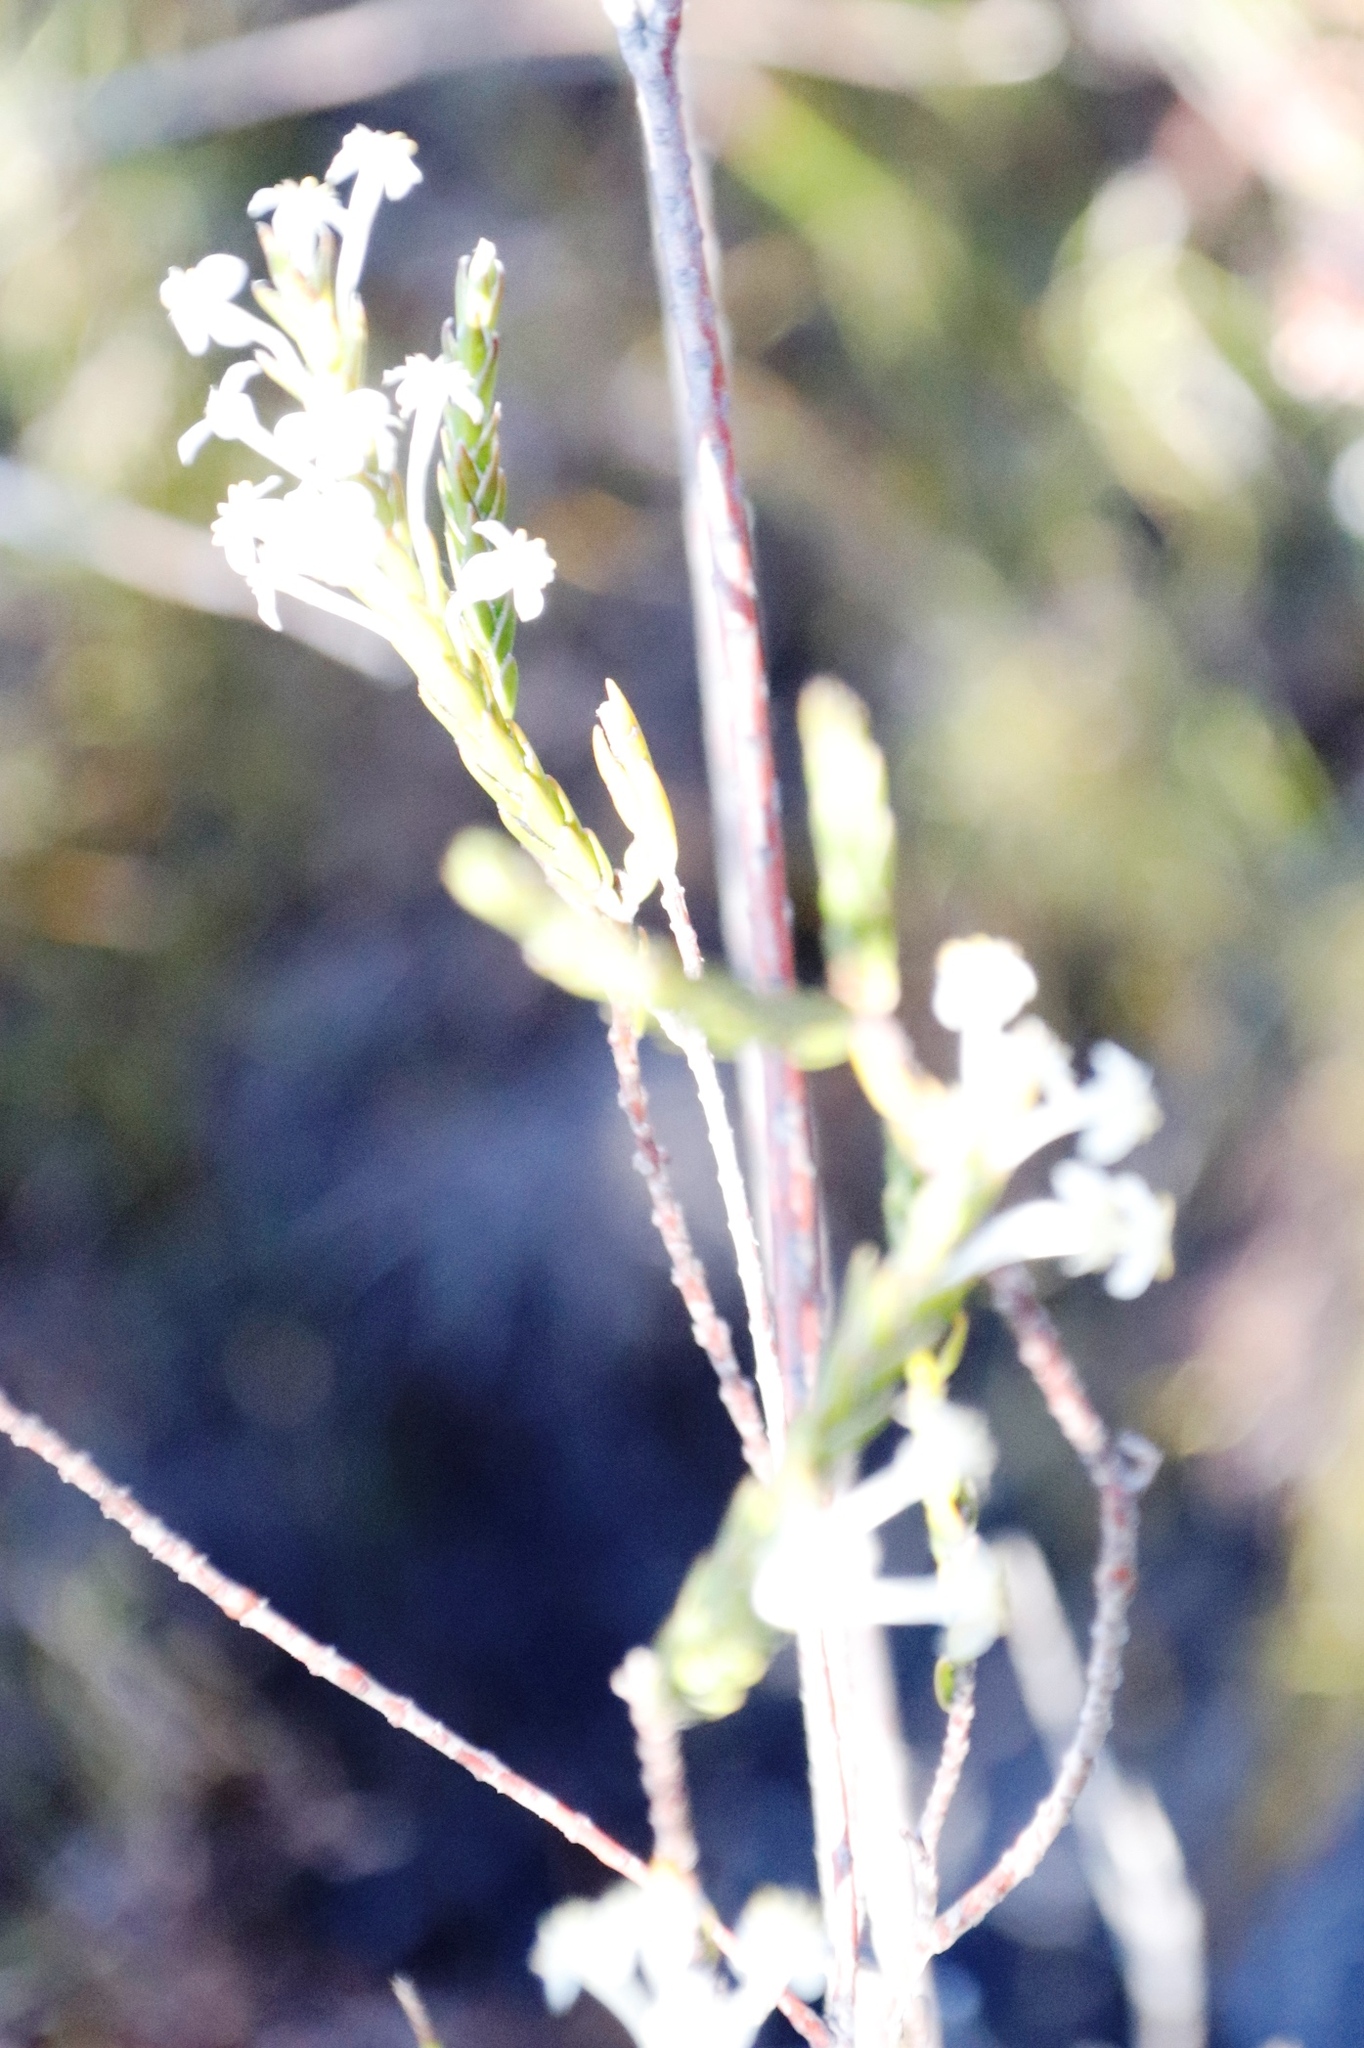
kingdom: Plantae
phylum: Tracheophyta
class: Magnoliopsida
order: Malvales
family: Thymelaeaceae
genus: Struthiola
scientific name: Struthiola ciliata
